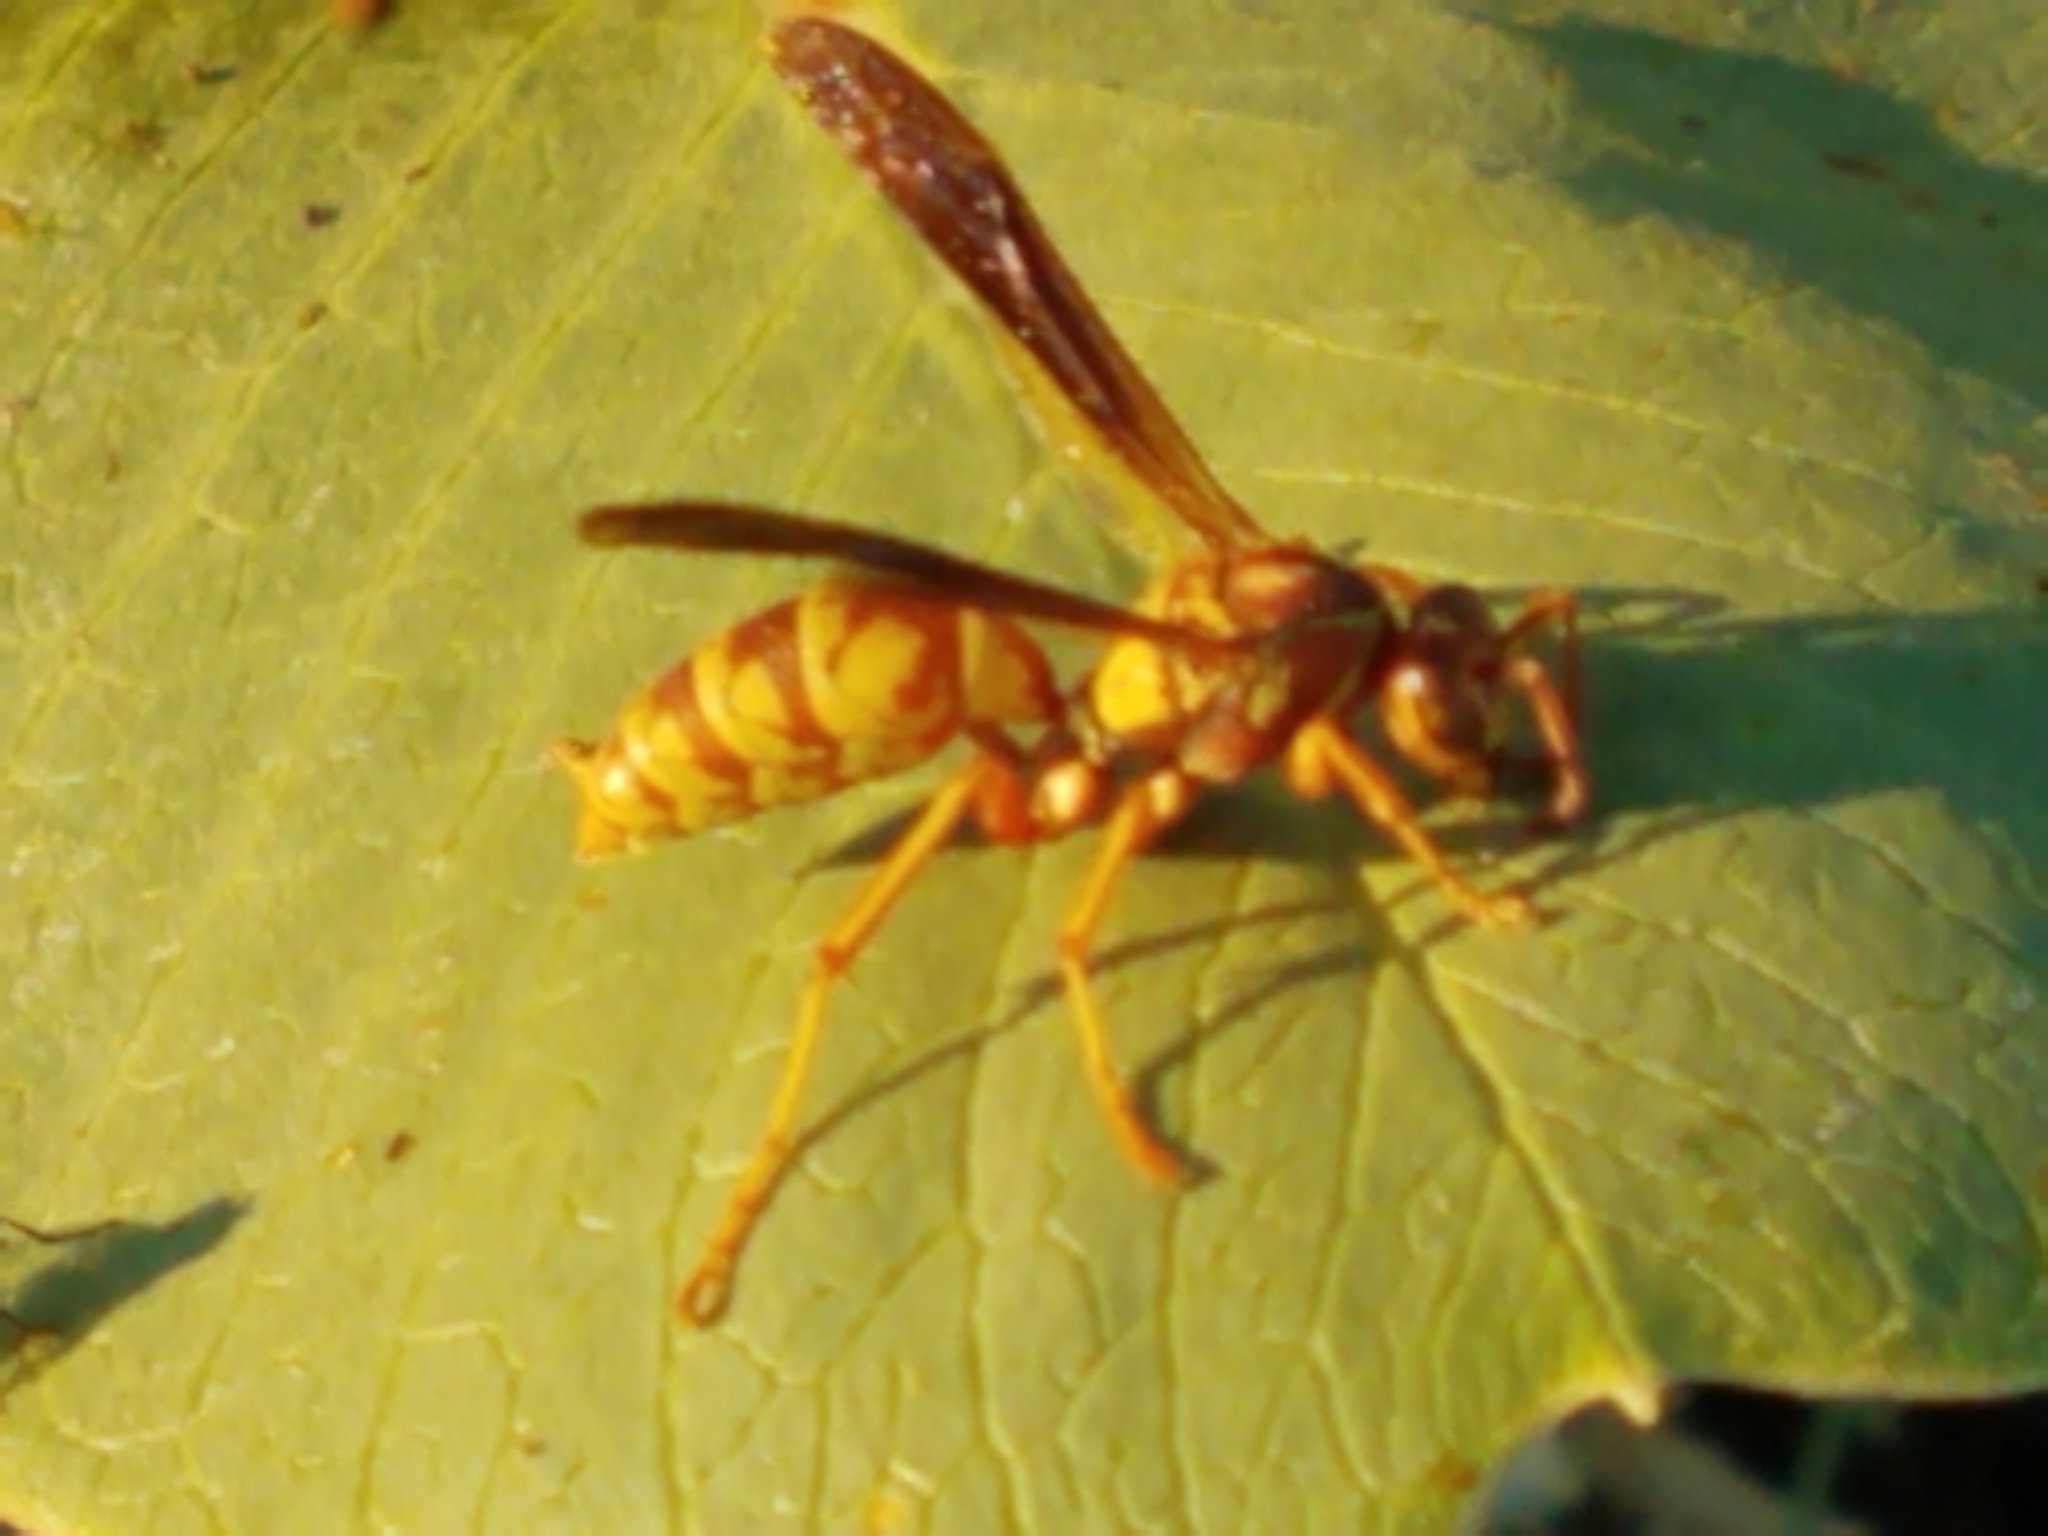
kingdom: Animalia
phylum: Arthropoda
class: Insecta
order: Hymenoptera
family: Eumenidae
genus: Polistes
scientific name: Polistes aurifer
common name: Paper wasp
